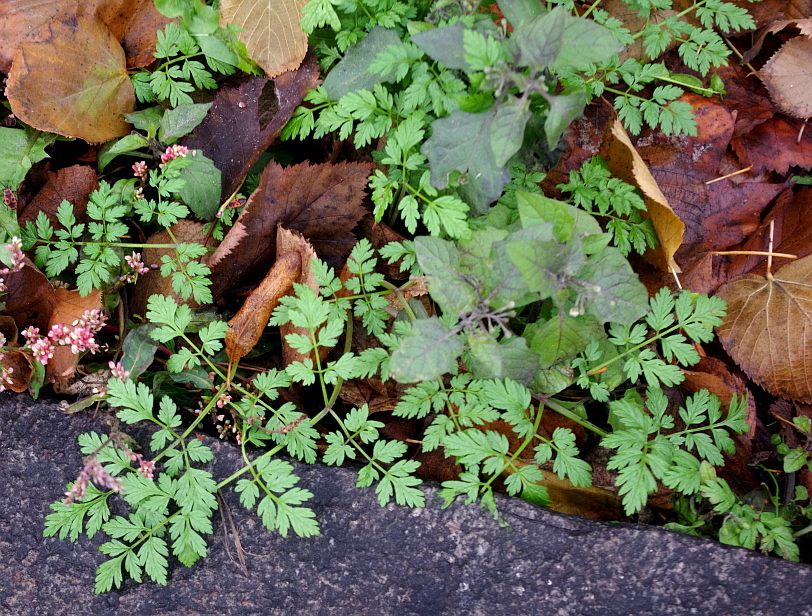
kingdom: Plantae
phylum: Tracheophyta
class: Magnoliopsida
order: Apiales
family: Apiaceae
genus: Anthriscus
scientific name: Anthriscus sylvestris
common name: Cow parsley
